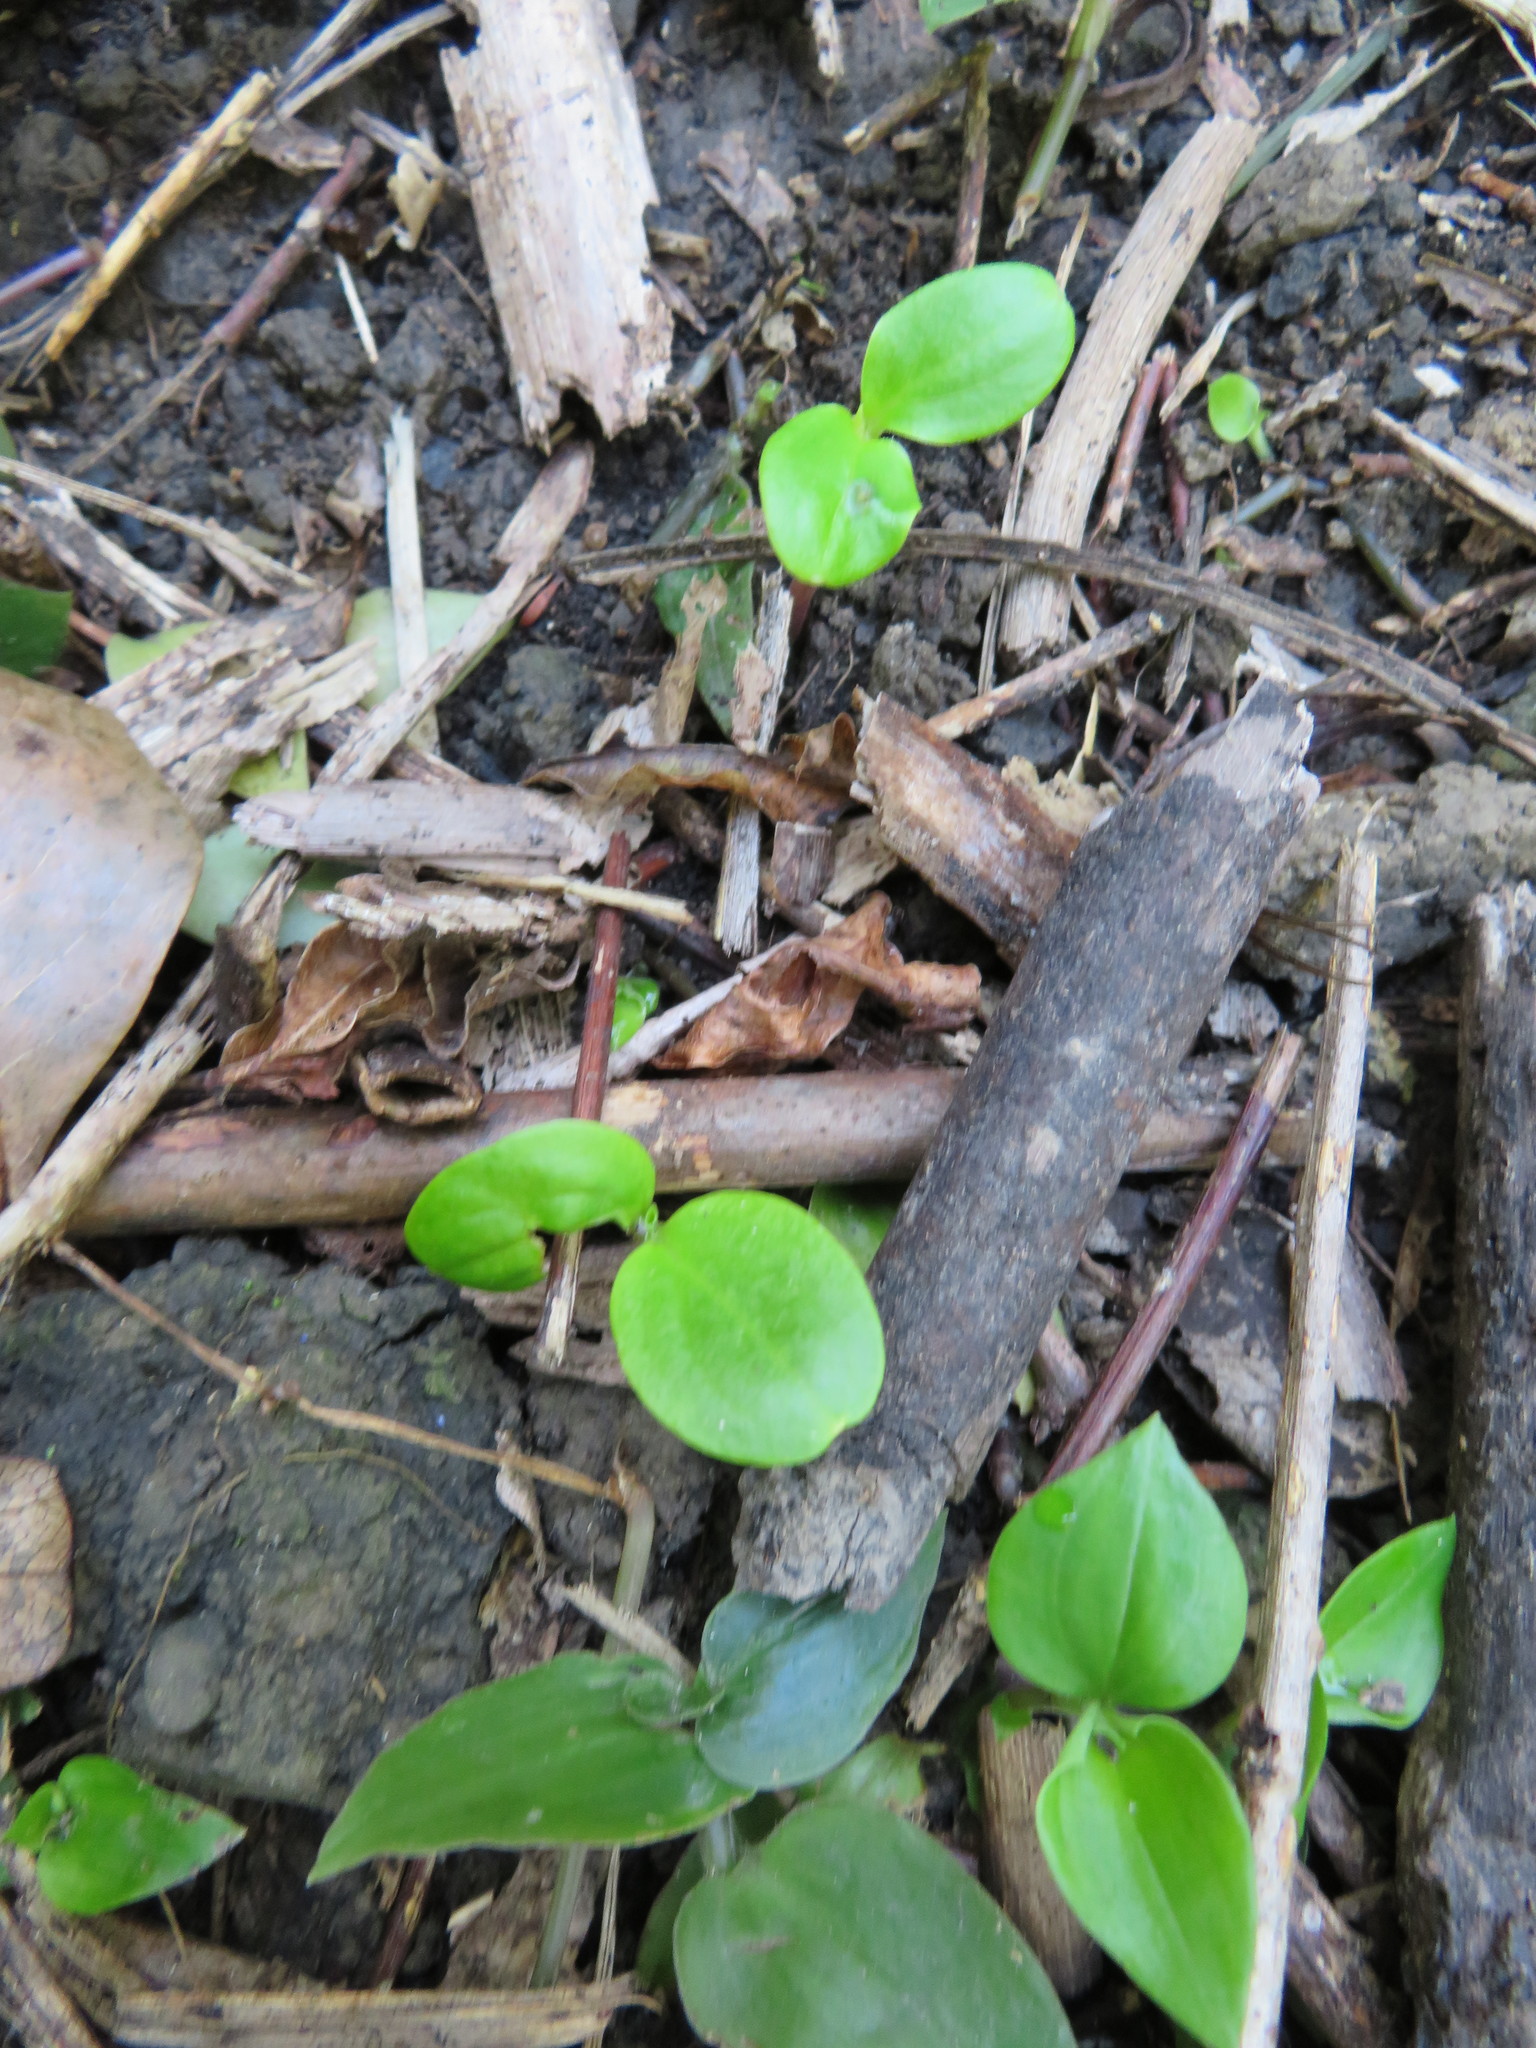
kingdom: Plantae
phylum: Tracheophyta
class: Magnoliopsida
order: Geraniales
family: Melianthaceae
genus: Melianthus
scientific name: Melianthus major
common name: Honey-flower
